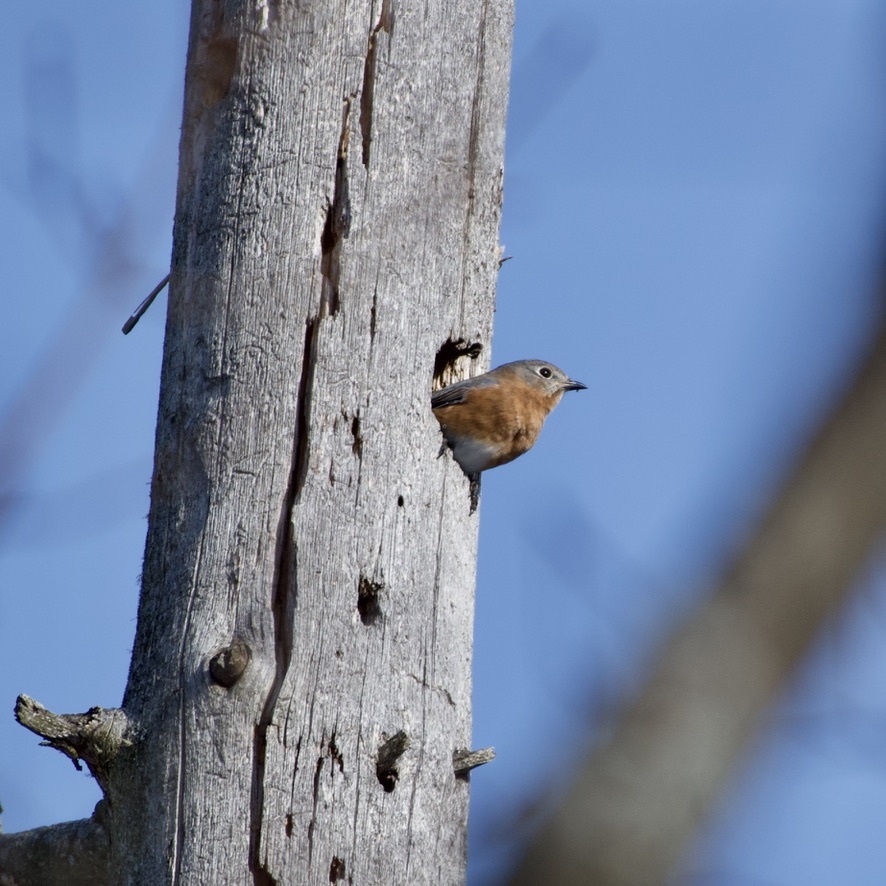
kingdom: Animalia
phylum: Chordata
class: Aves
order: Passeriformes
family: Turdidae
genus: Sialia
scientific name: Sialia sialis
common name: Eastern bluebird
